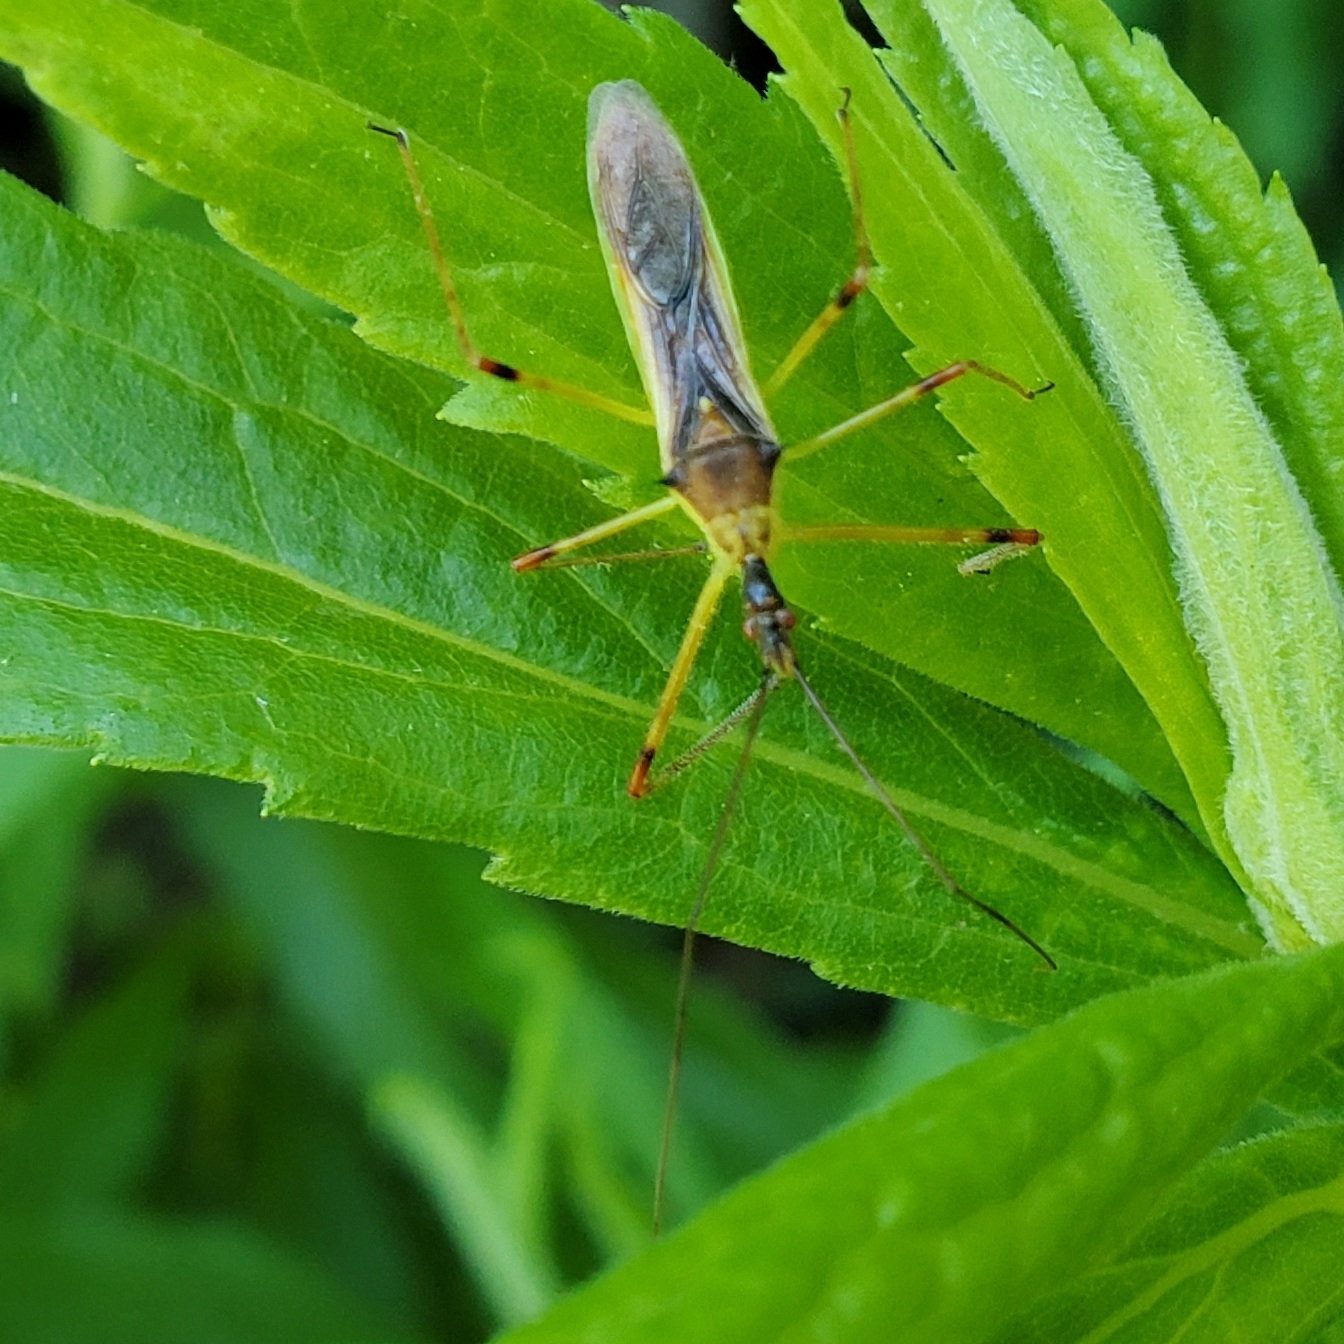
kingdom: Animalia
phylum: Arthropoda
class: Insecta
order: Hemiptera
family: Reduviidae
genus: Zelus
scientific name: Zelus luridus
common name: Pale green assassin bug
